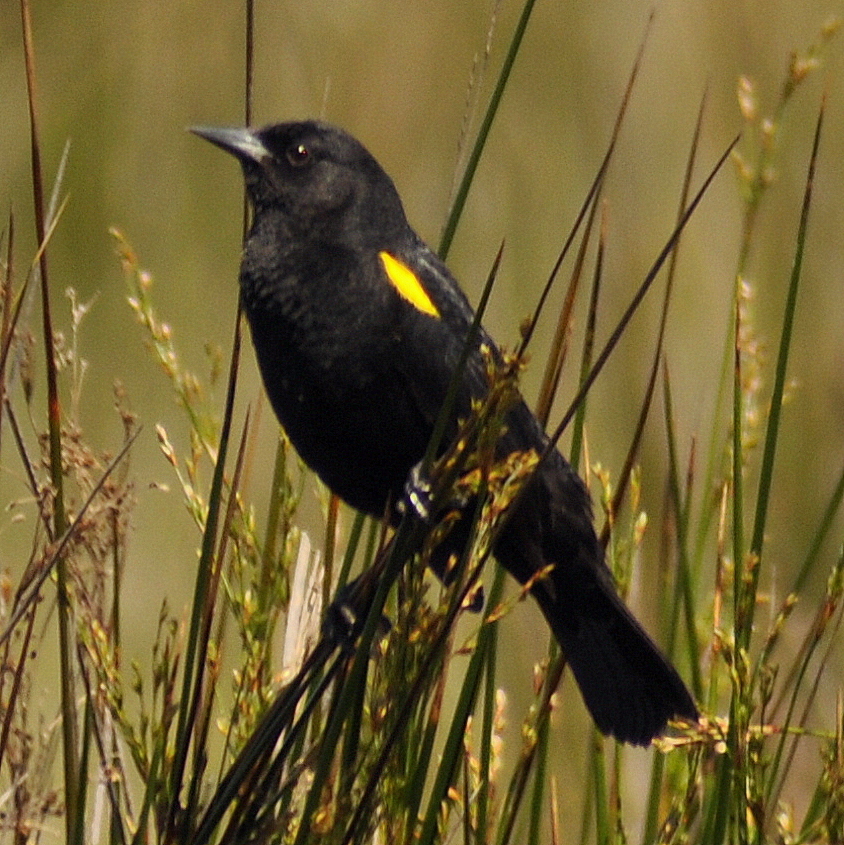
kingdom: Animalia
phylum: Chordata
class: Aves
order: Passeriformes
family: Icteridae
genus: Agelasticus
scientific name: Agelasticus thilius
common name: Yellow-winged blackbird
